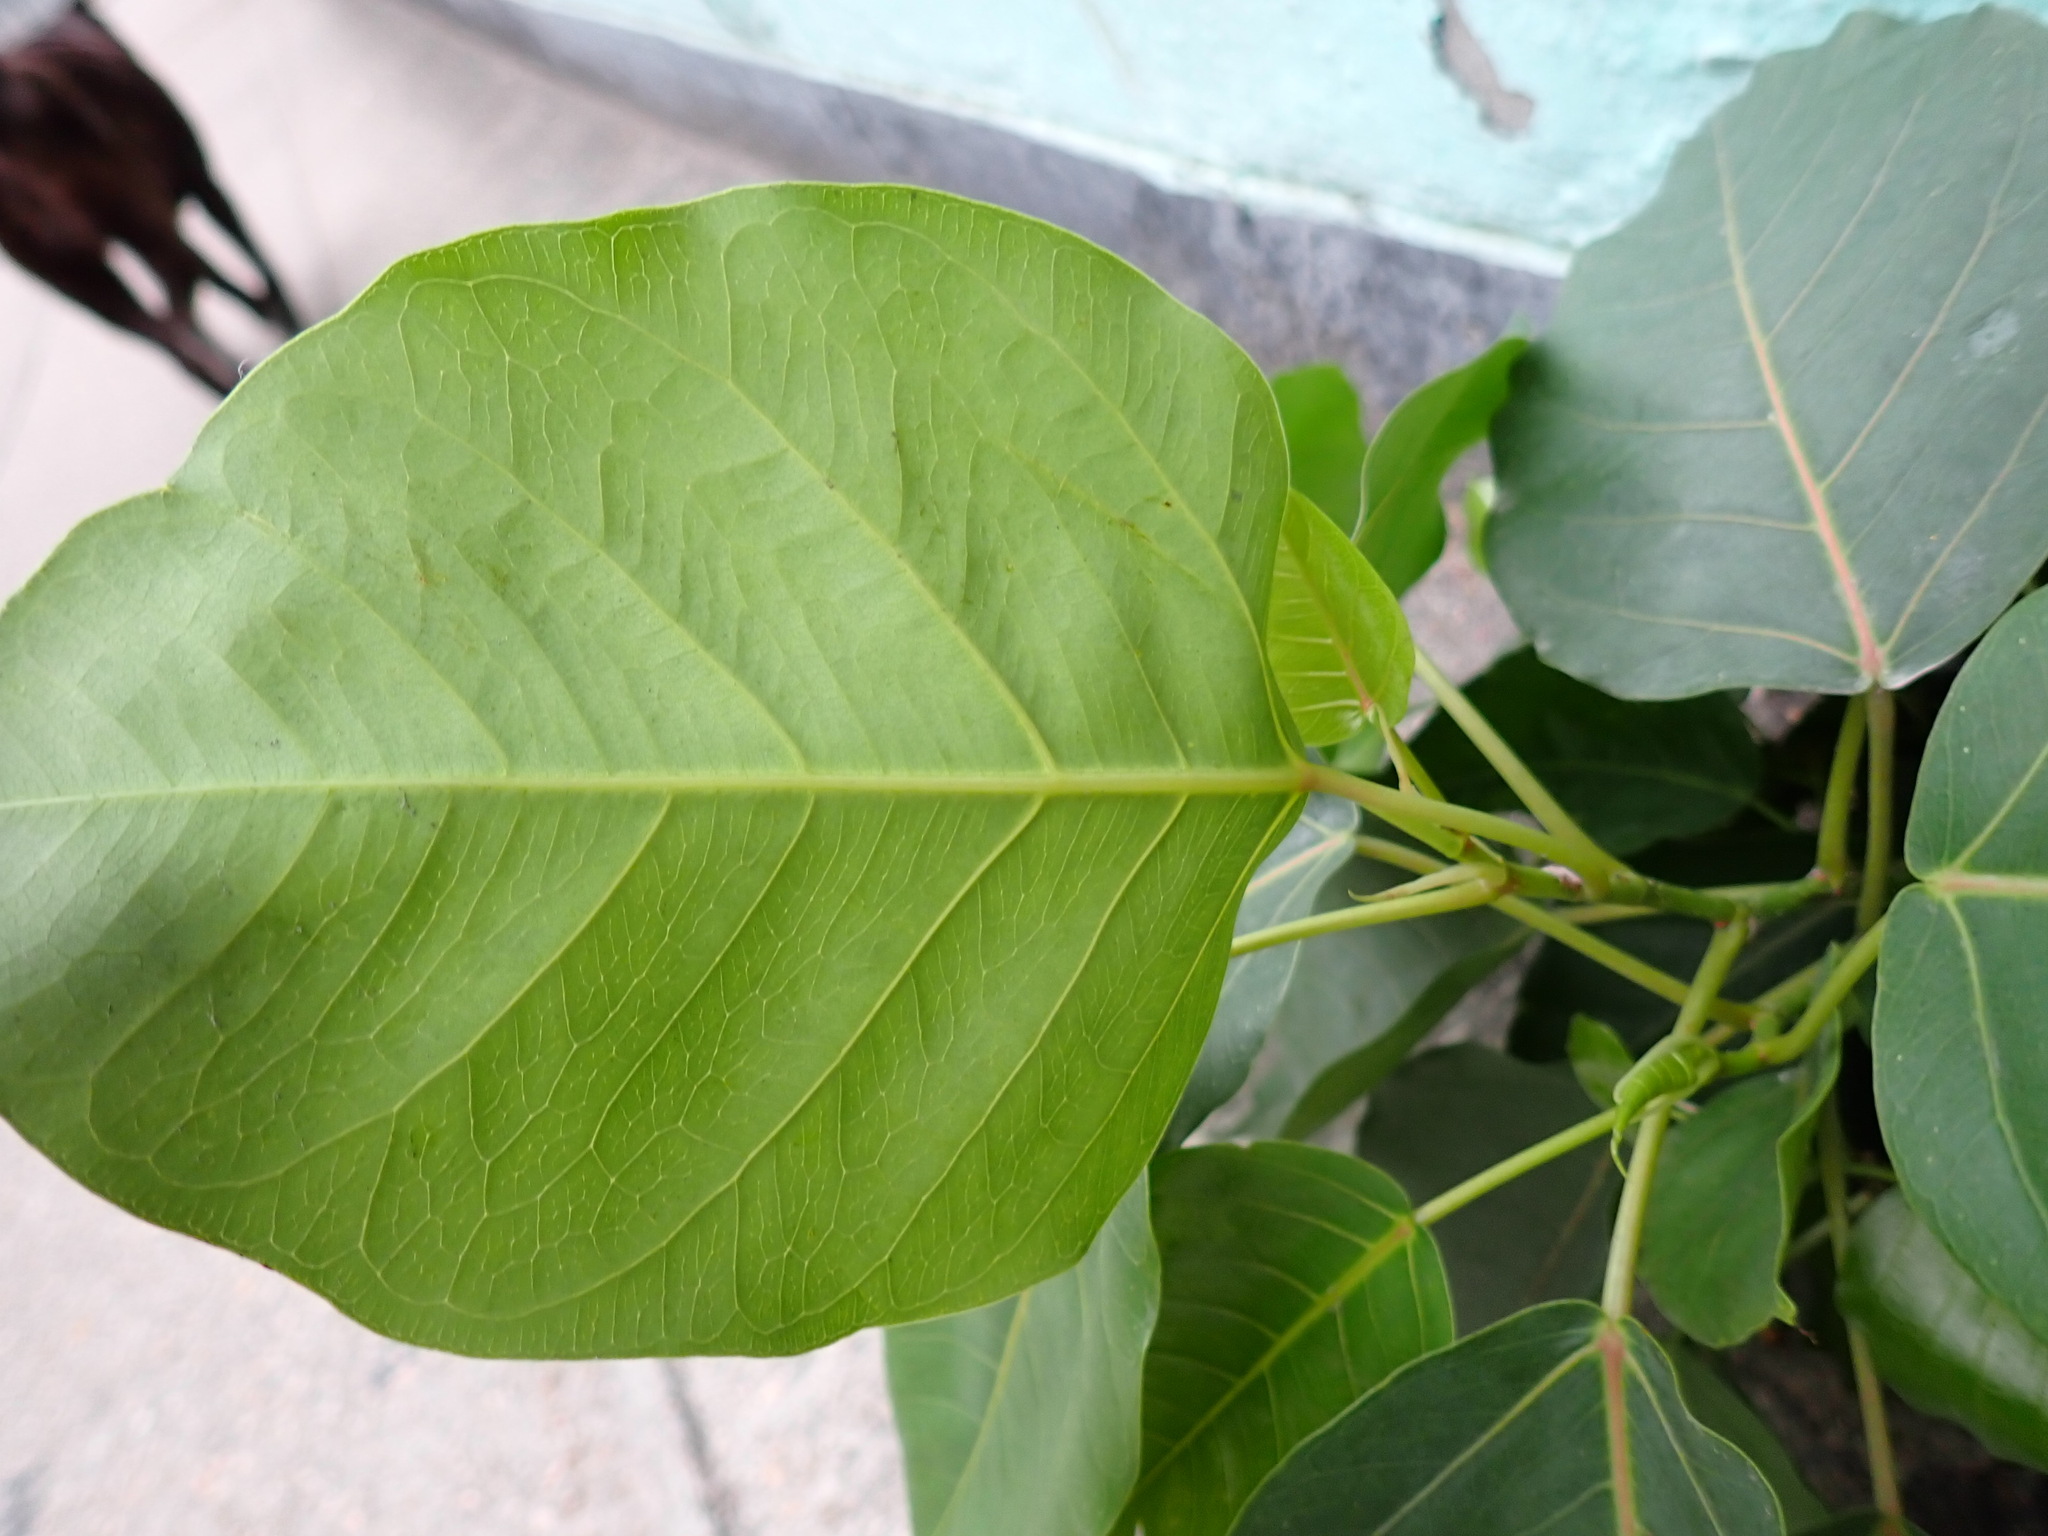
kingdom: Plantae
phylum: Tracheophyta
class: Magnoliopsida
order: Rosales
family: Moraceae
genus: Ficus
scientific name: Ficus religiosa
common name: Bodhi tree
